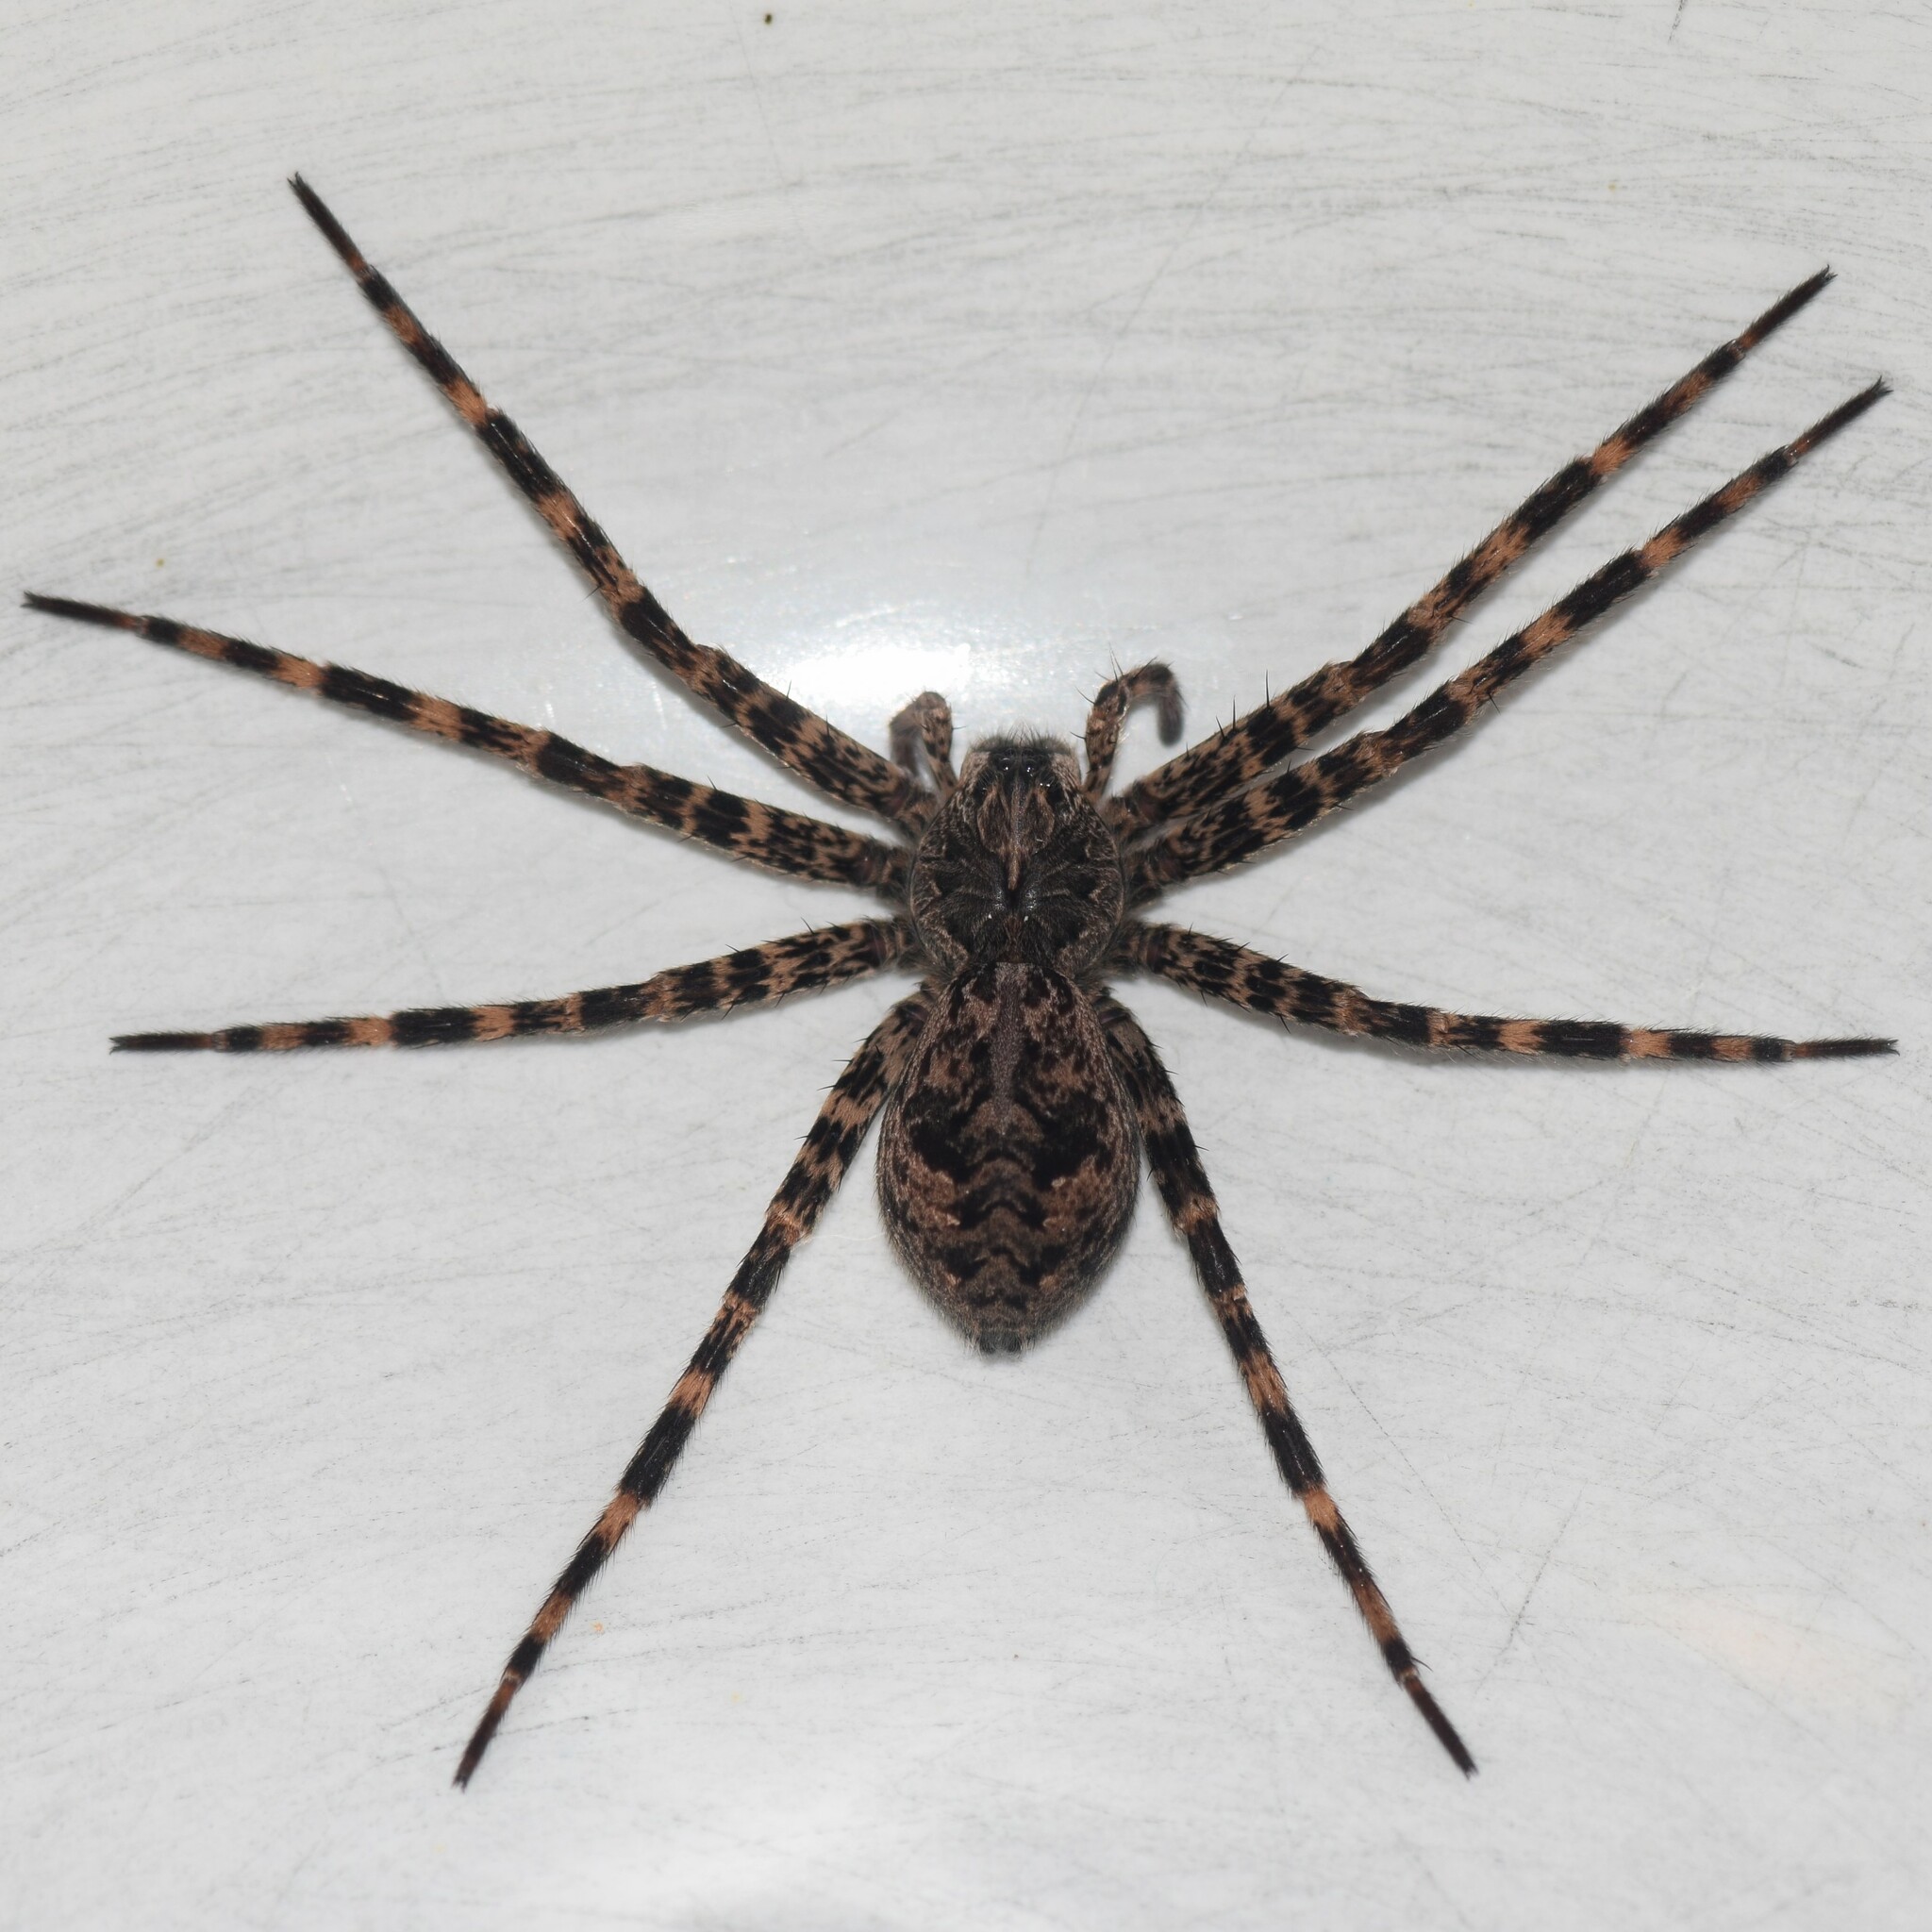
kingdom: Animalia
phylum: Arthropoda
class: Arachnida
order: Araneae
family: Pisauridae
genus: Dolomedes
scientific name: Dolomedes tenebrosus
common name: Dark fishing spider
